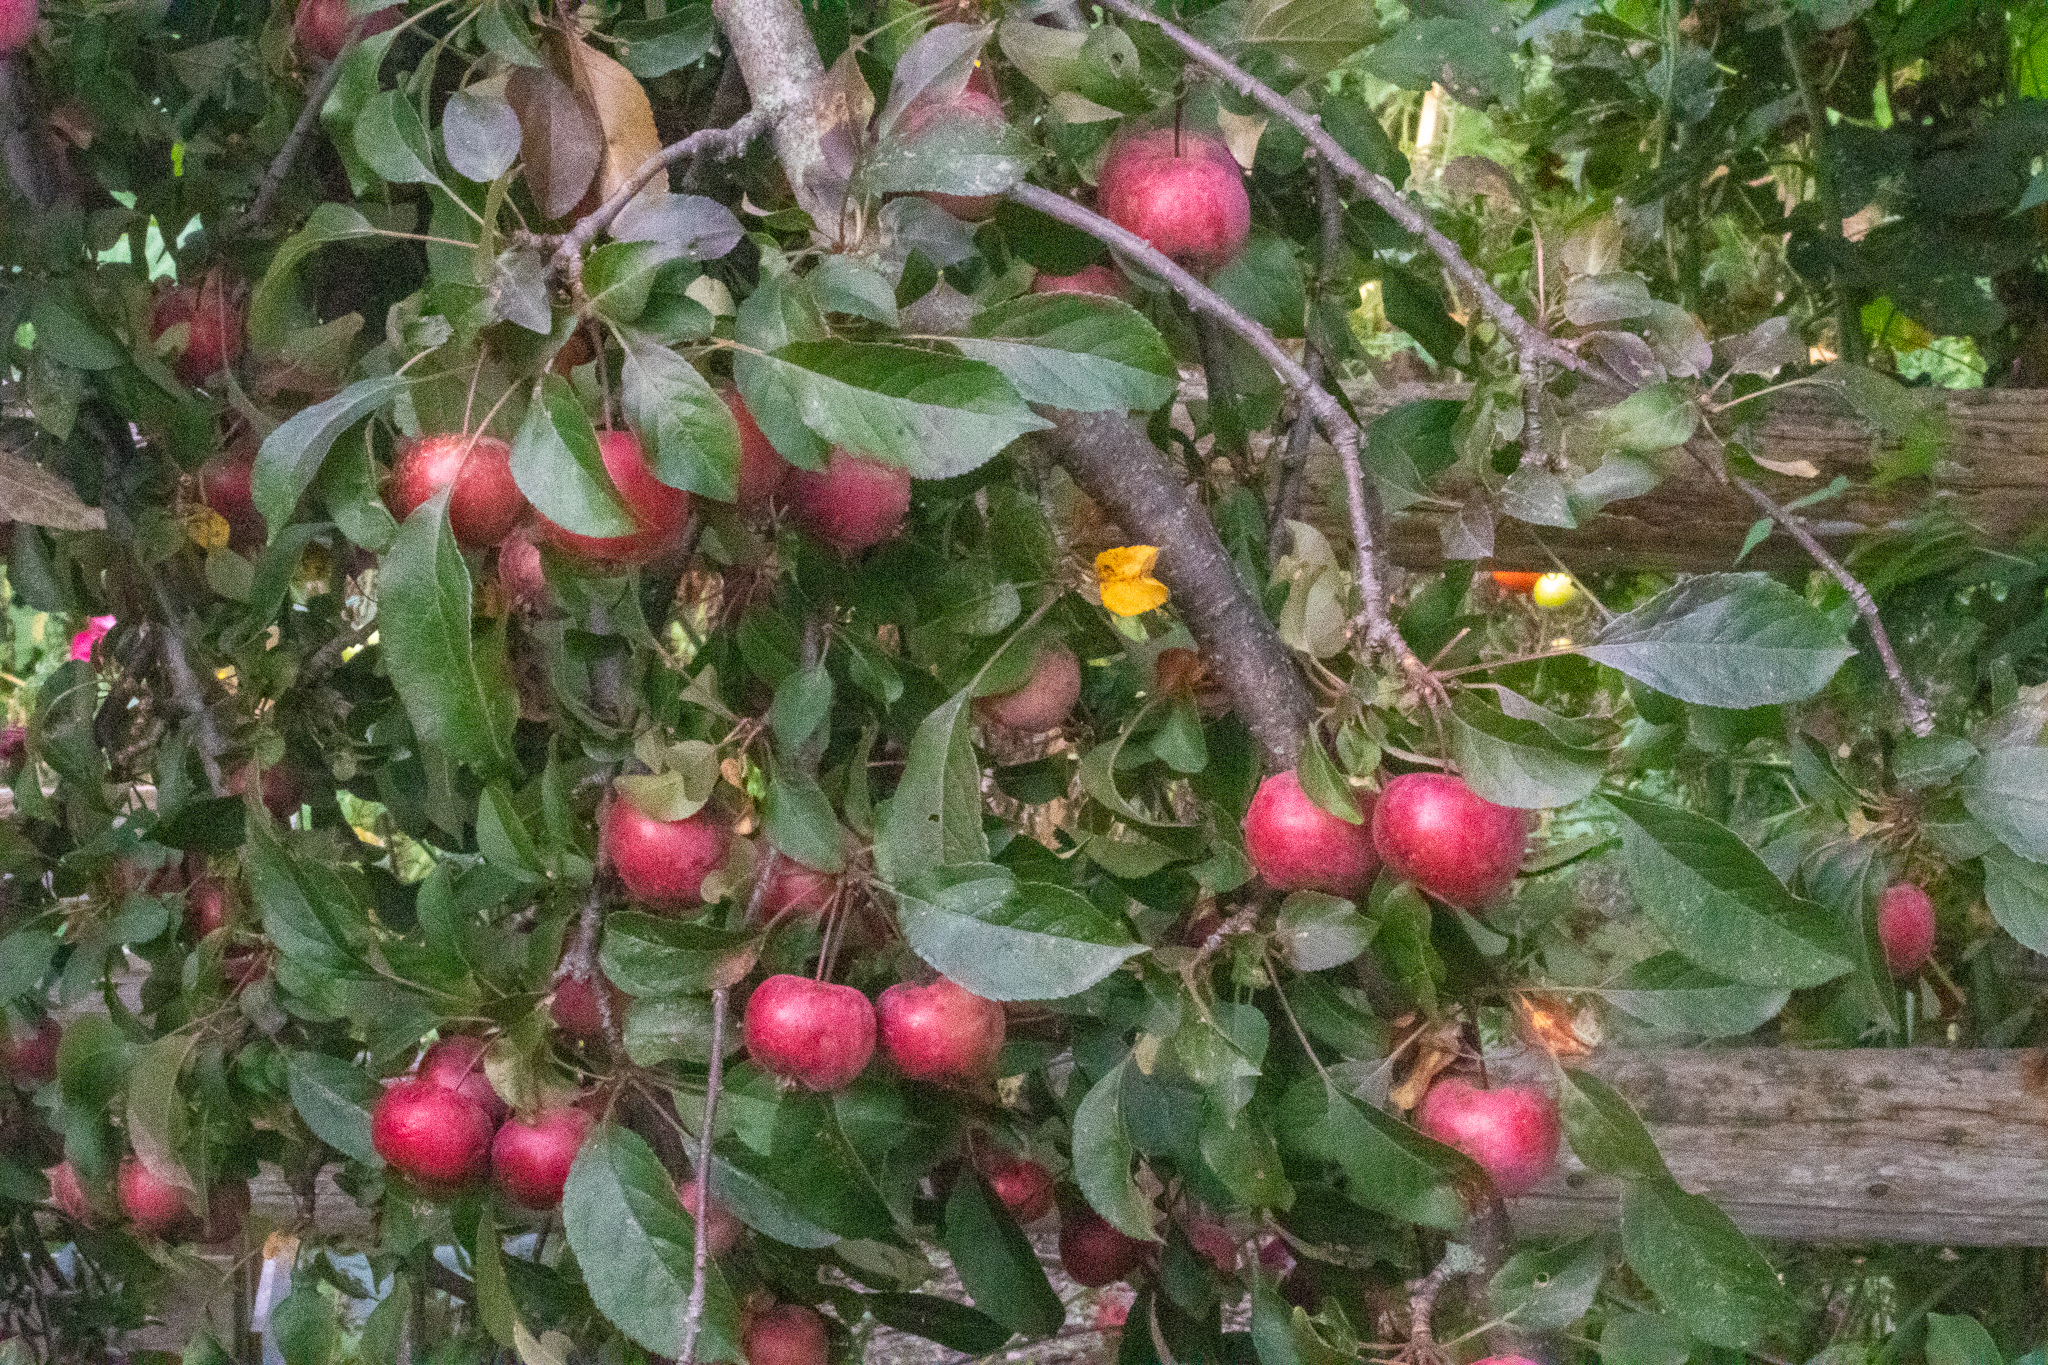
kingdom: Plantae
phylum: Tracheophyta
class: Magnoliopsida
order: Rosales
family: Rosaceae
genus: Malus
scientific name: Malus domestica
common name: Apple
